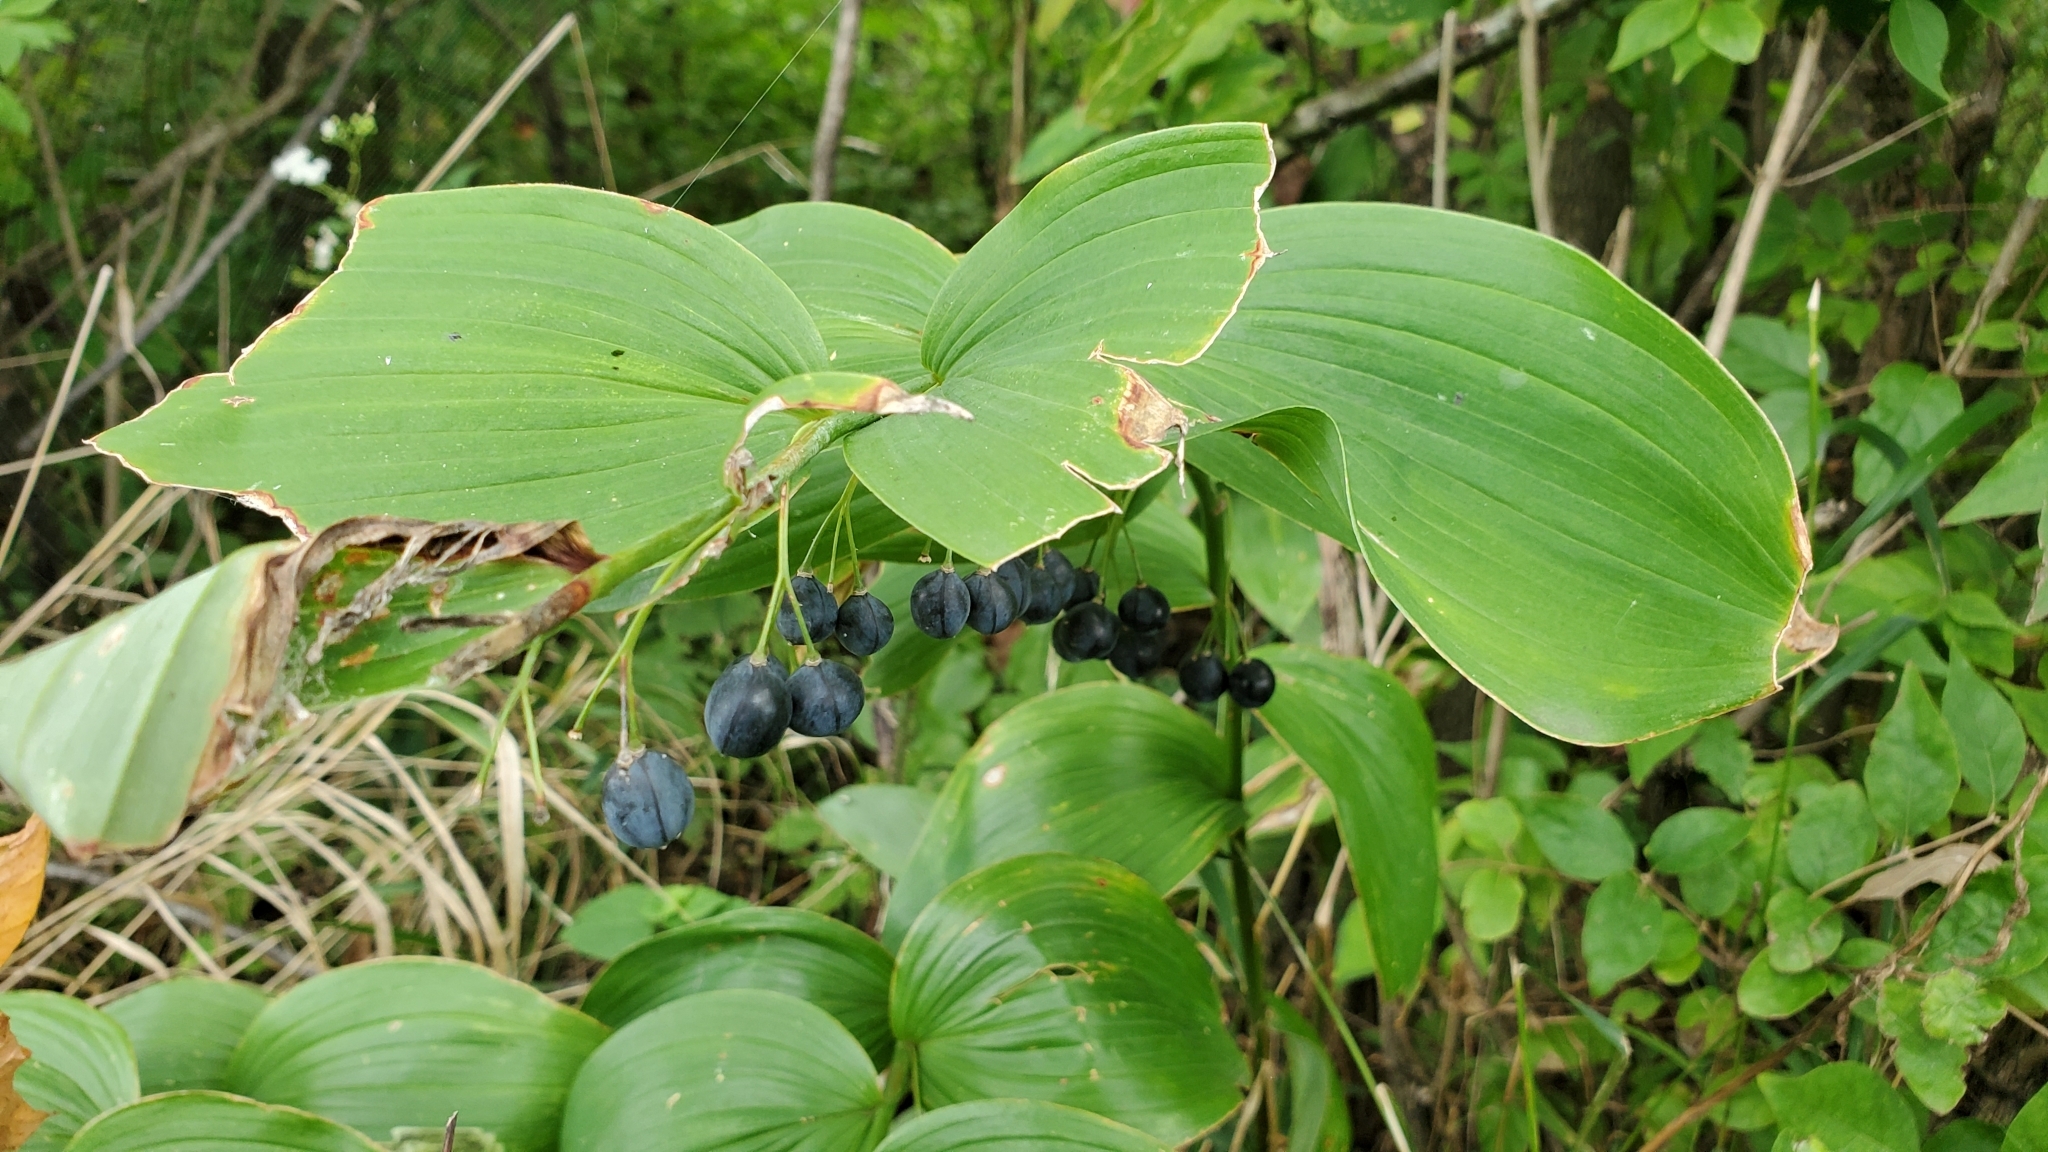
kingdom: Plantae
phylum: Tracheophyta
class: Liliopsida
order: Asparagales
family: Asparagaceae
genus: Polygonatum
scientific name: Polygonatum biflorum
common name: American solomon's-seal
